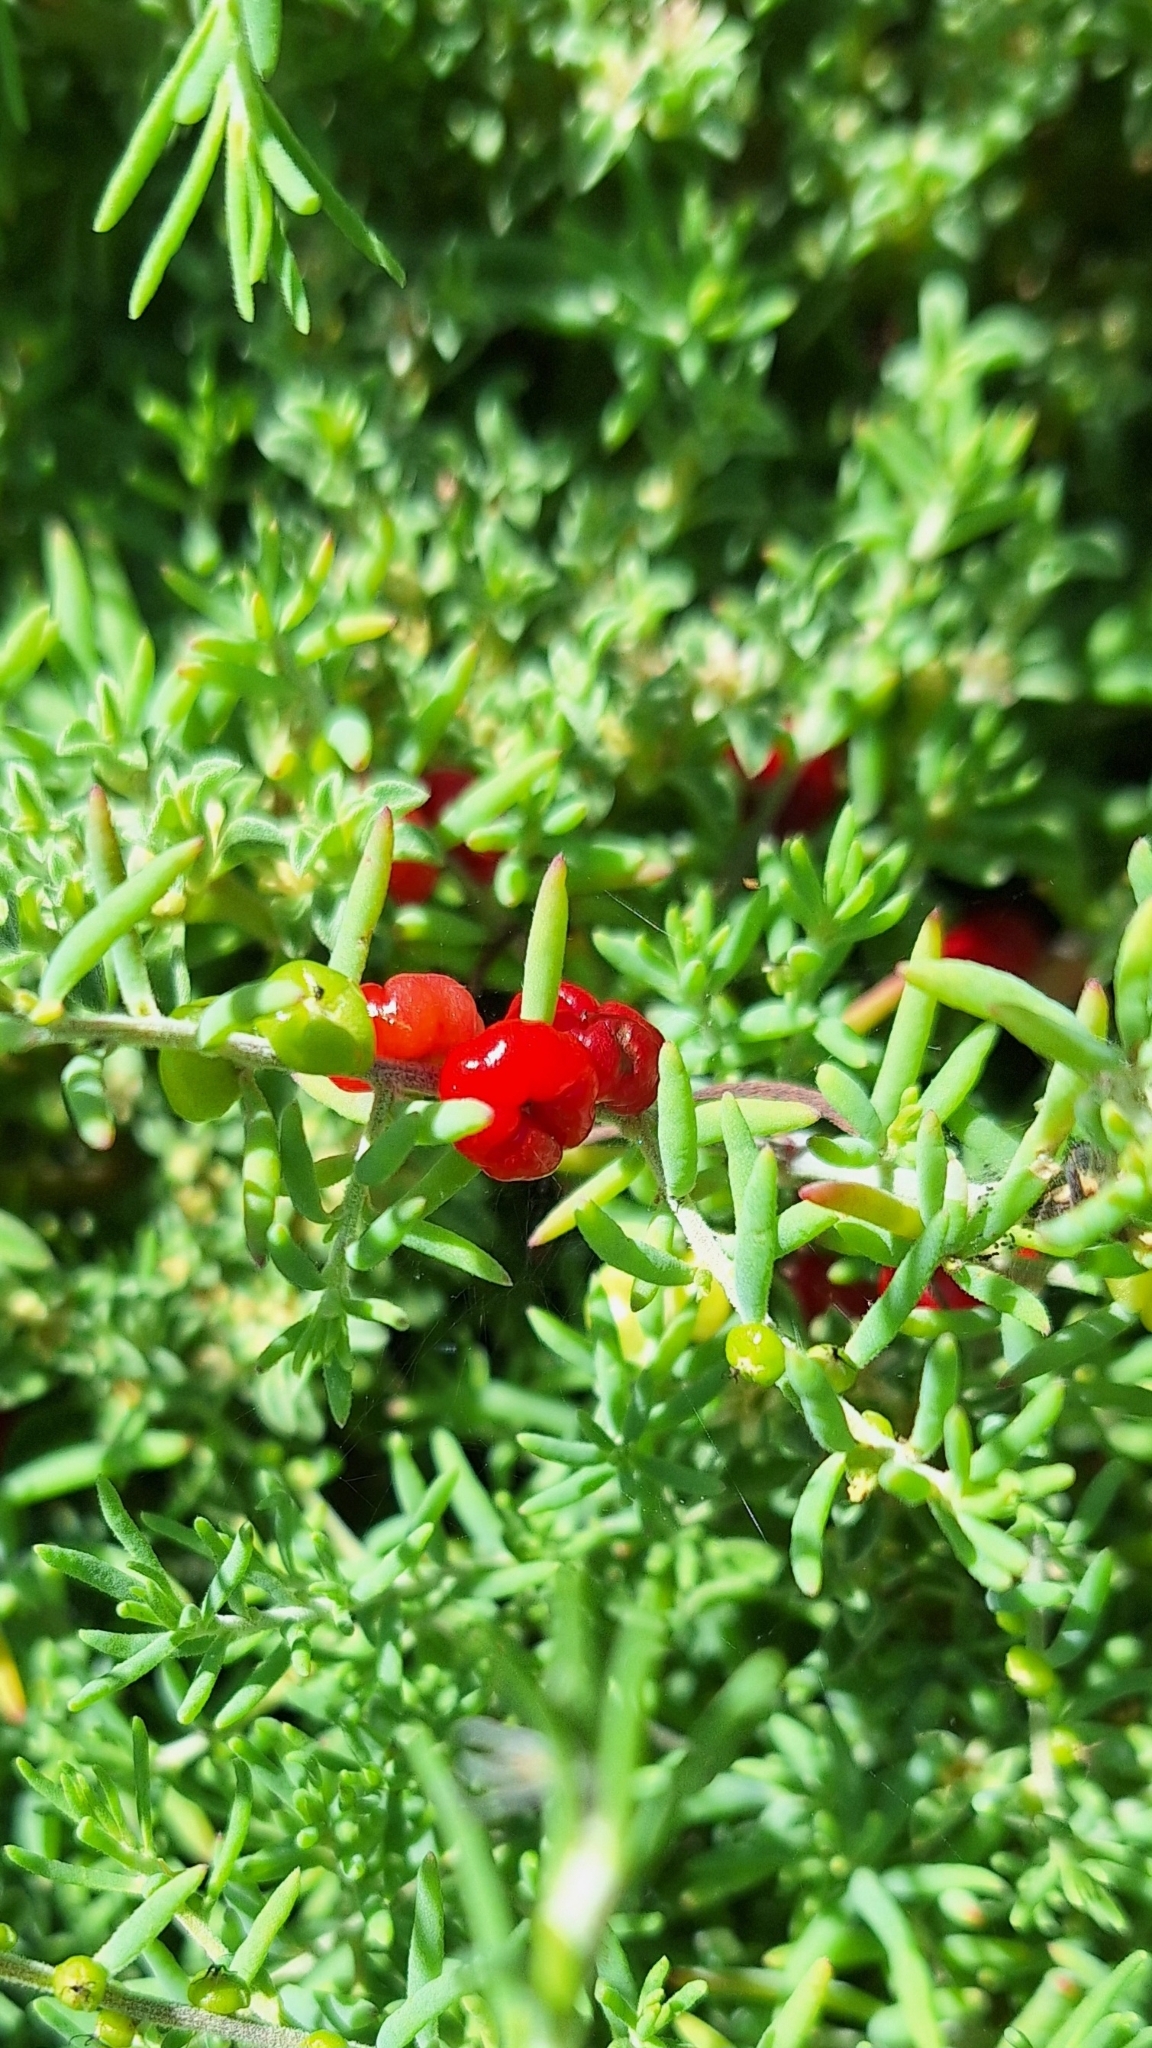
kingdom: Plantae
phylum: Tracheophyta
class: Magnoliopsida
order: Caryophyllales
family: Amaranthaceae
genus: Enchylaena
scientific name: Enchylaena tomentosa
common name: Ruby saltbush
